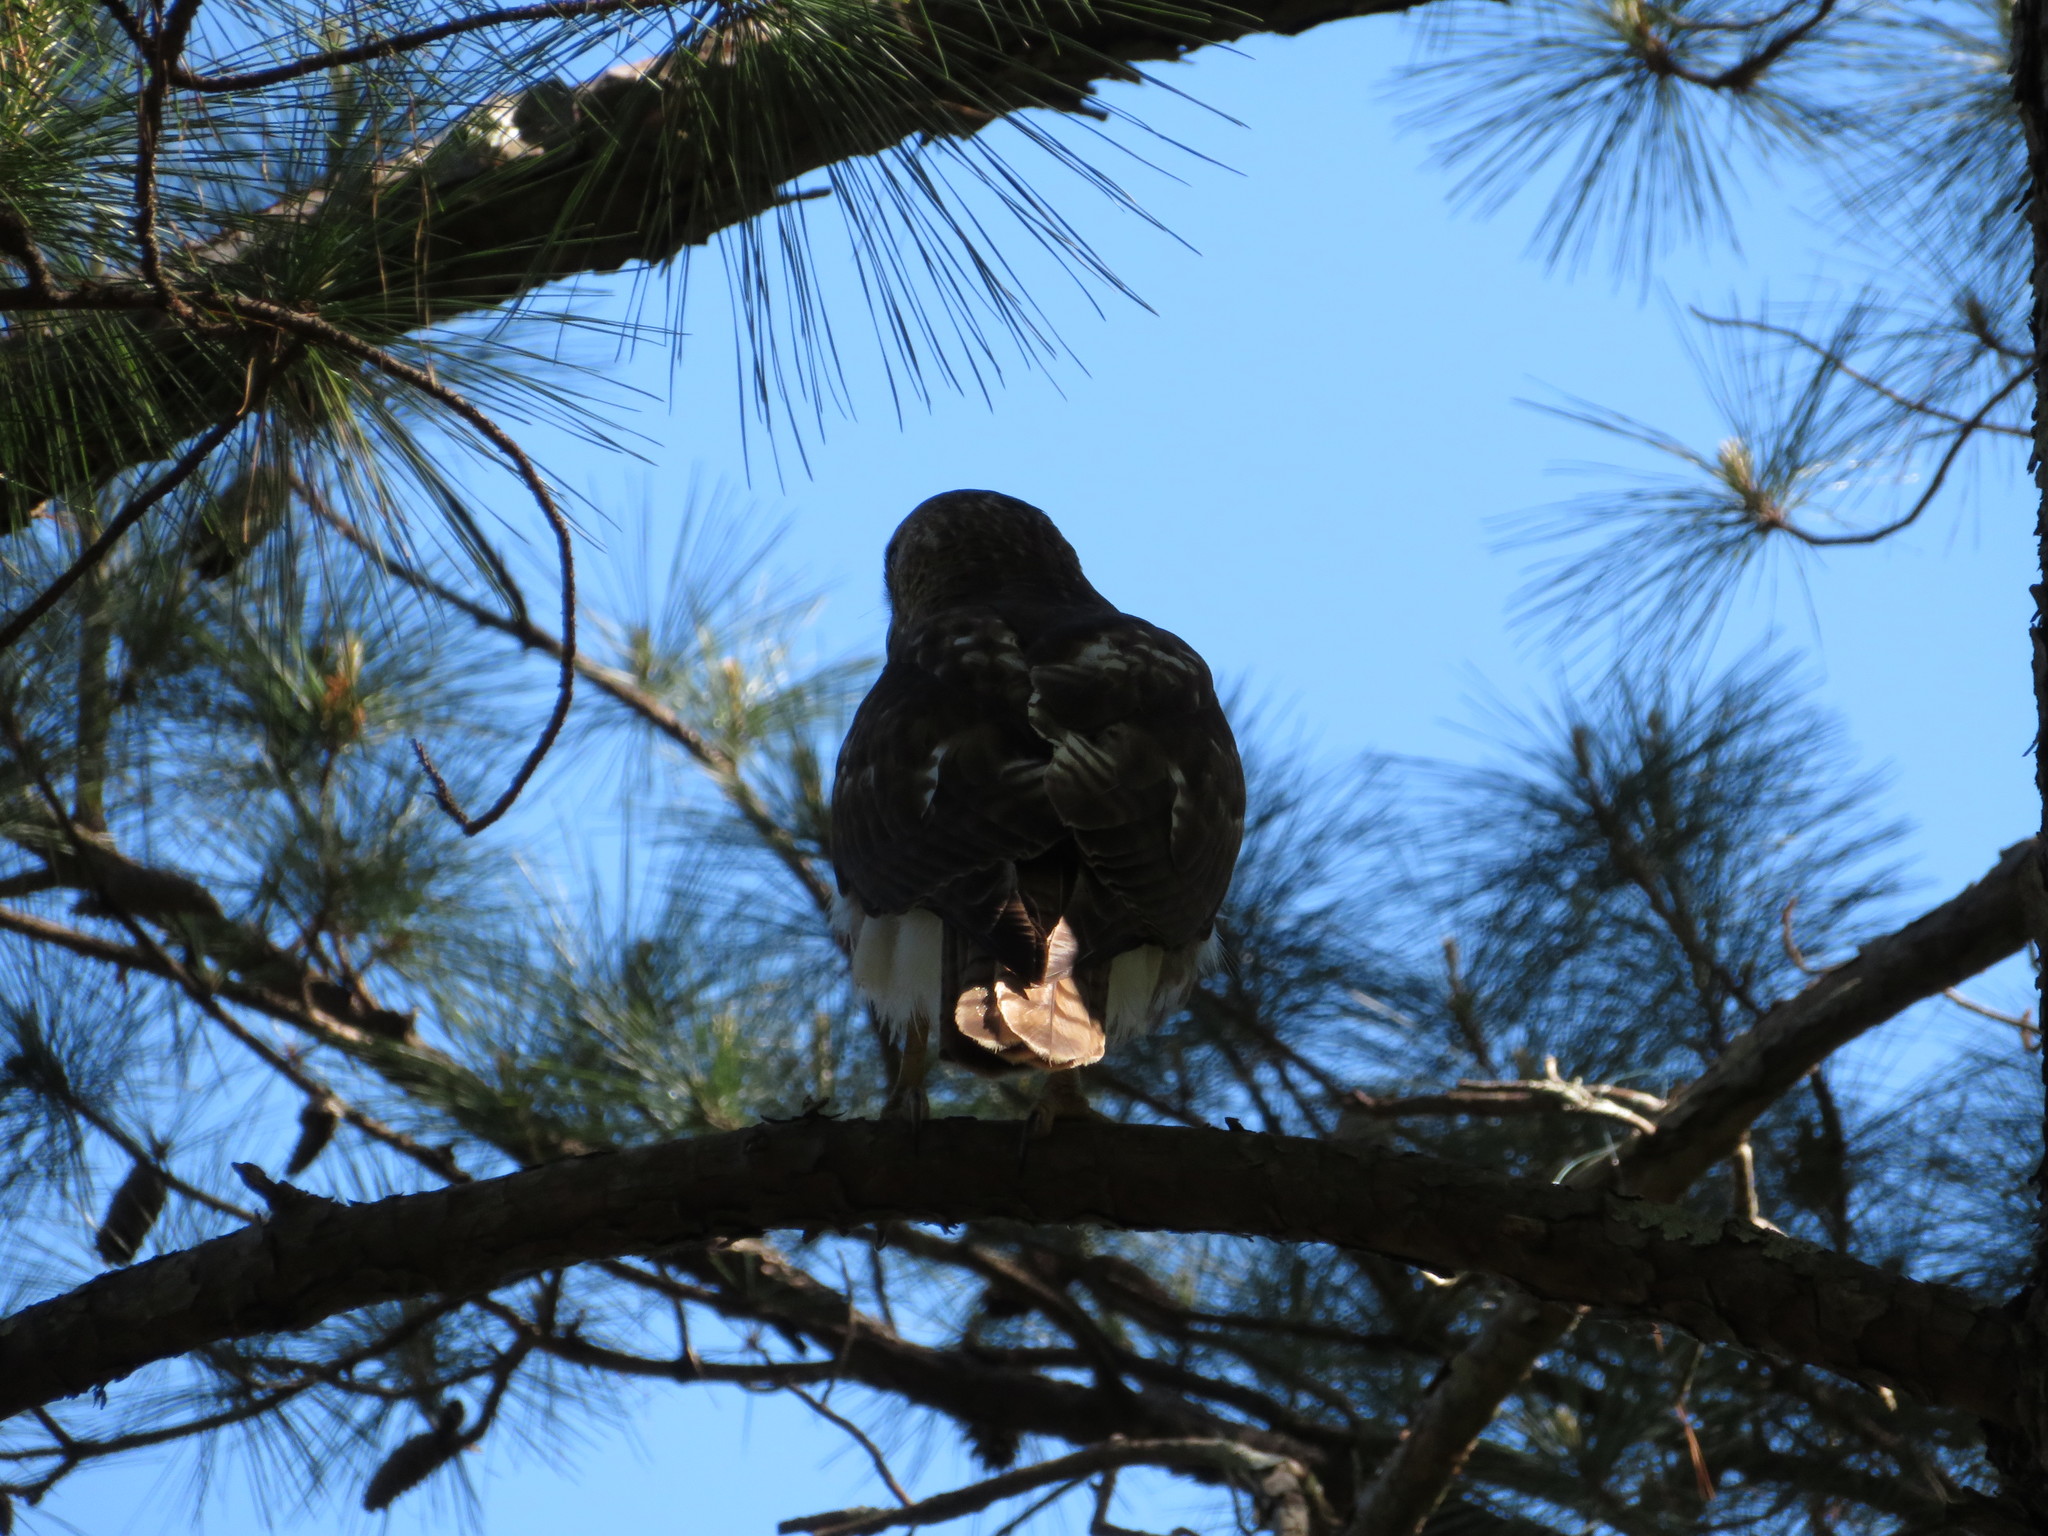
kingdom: Animalia
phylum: Chordata
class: Aves
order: Accipitriformes
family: Accipitridae
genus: Buteo
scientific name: Buteo jamaicensis
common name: Red-tailed hawk
